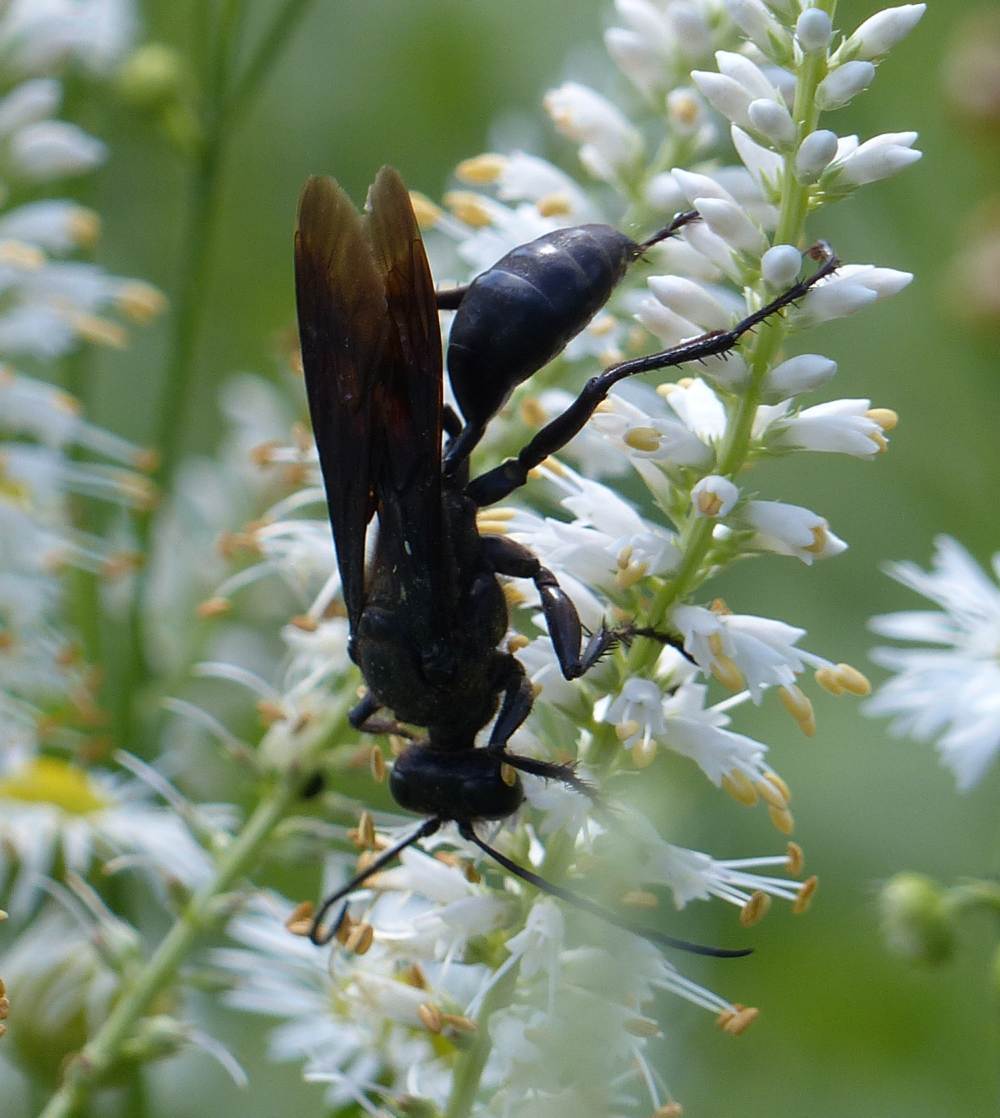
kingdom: Animalia
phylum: Arthropoda
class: Insecta
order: Hymenoptera
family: Sphecidae
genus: Sphex
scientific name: Sphex pensylvanicus
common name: Great black digger wasp
